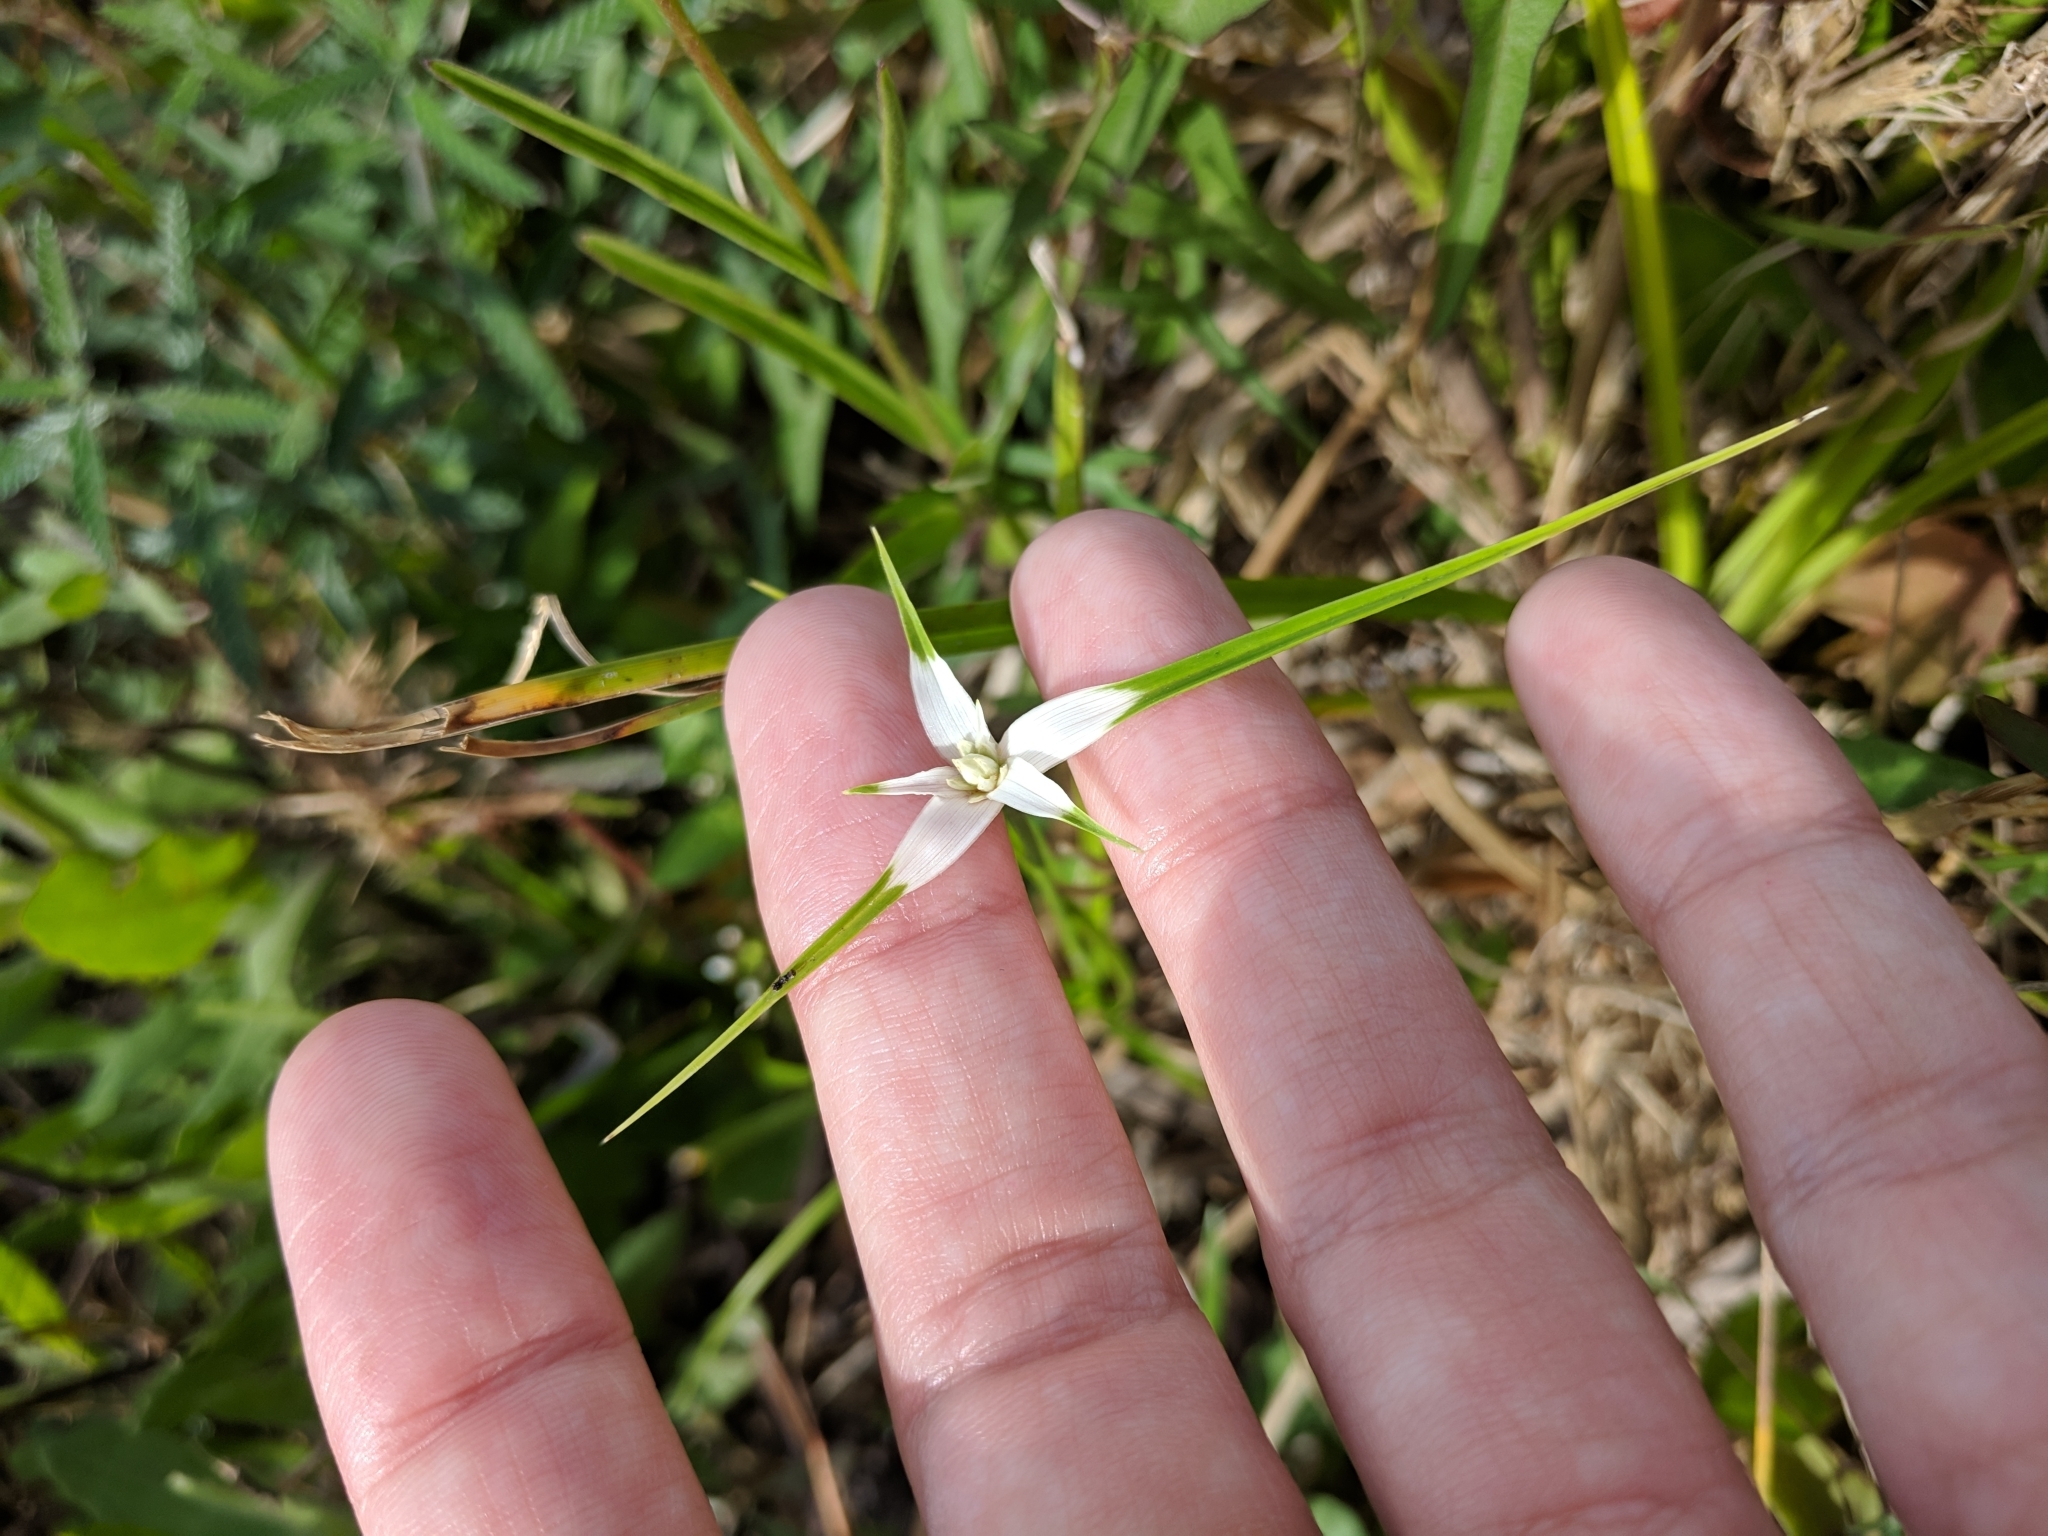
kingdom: Plantae
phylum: Tracheophyta
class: Liliopsida
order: Poales
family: Cyperaceae
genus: Rhynchospora
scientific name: Rhynchospora colorata
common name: Star sedge
